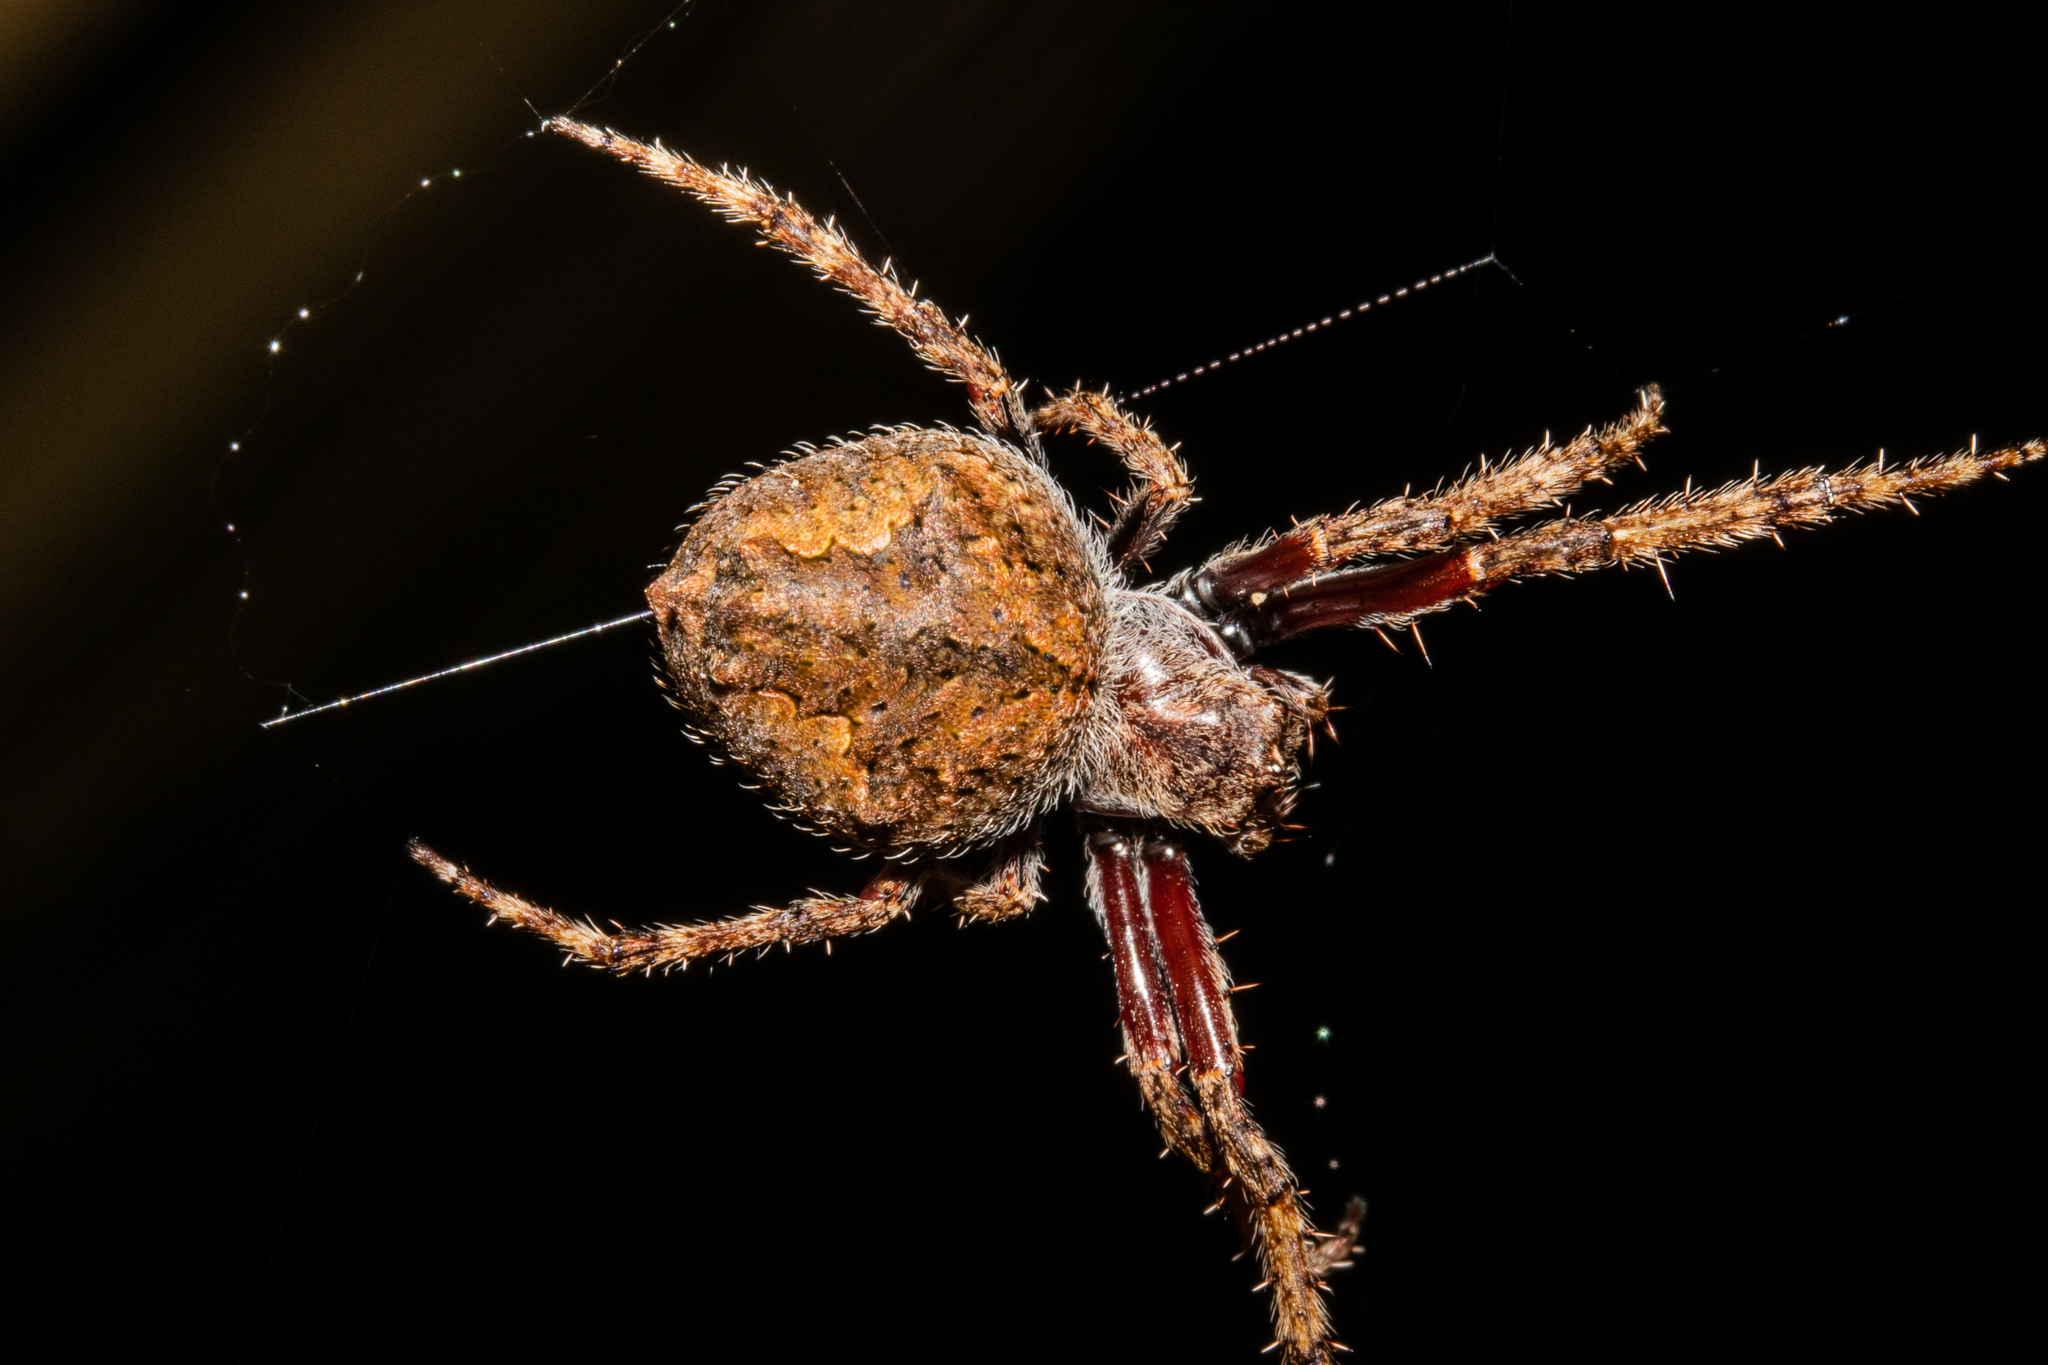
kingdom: Animalia
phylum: Arthropoda
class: Arachnida
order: Araneae
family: Araneidae
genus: Eriophora
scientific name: Eriophora pustulosa
